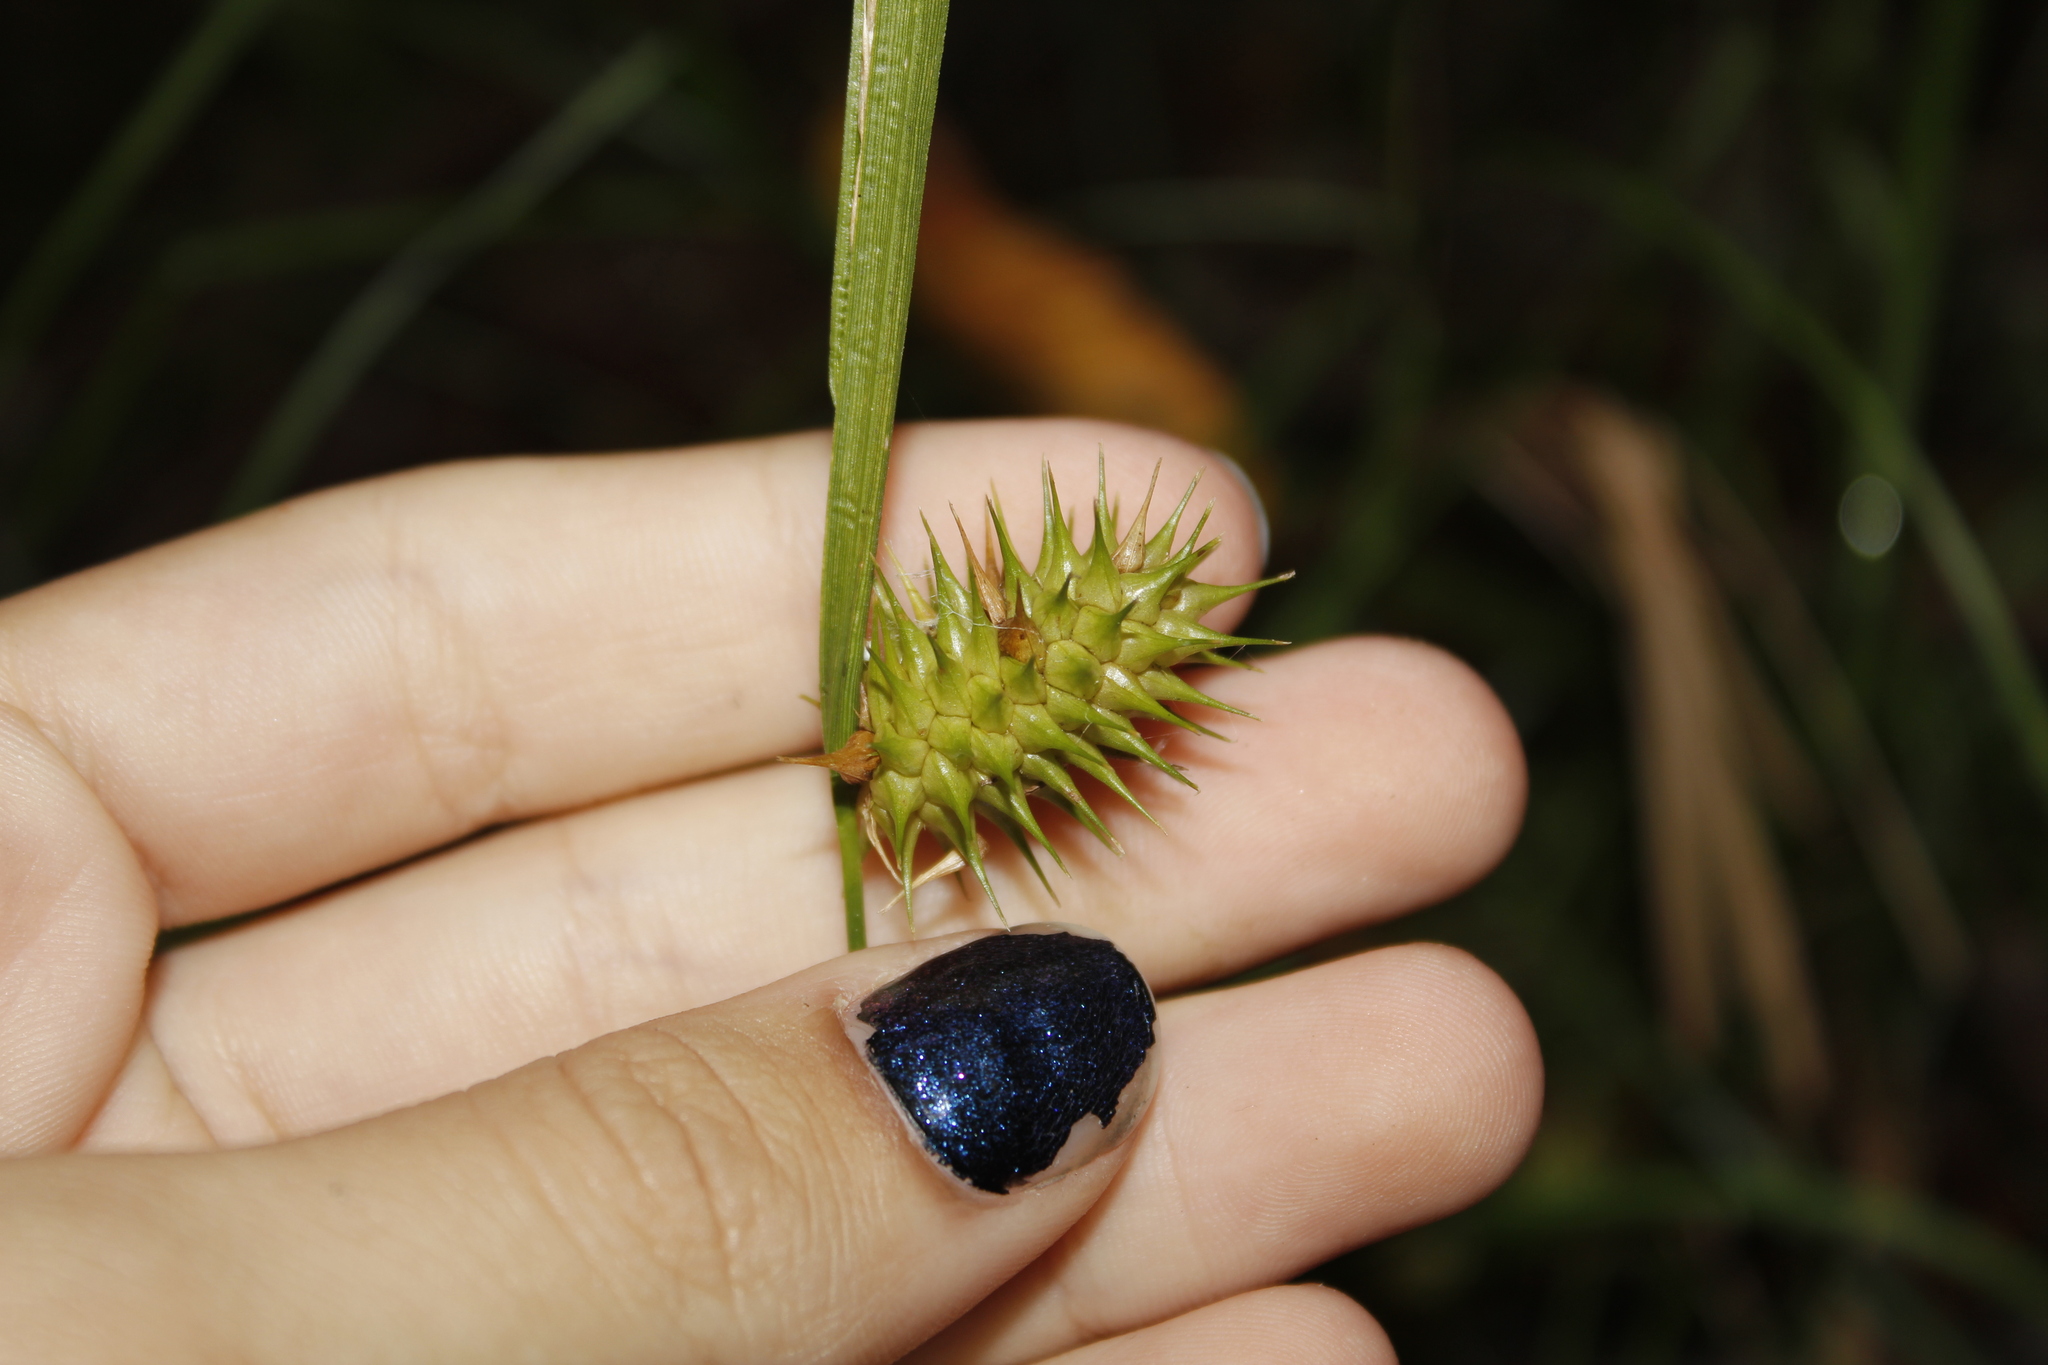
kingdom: Plantae
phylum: Tracheophyta
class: Liliopsida
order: Poales
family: Cyperaceae
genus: Carex
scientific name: Carex lurida
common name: Sallow sedge
